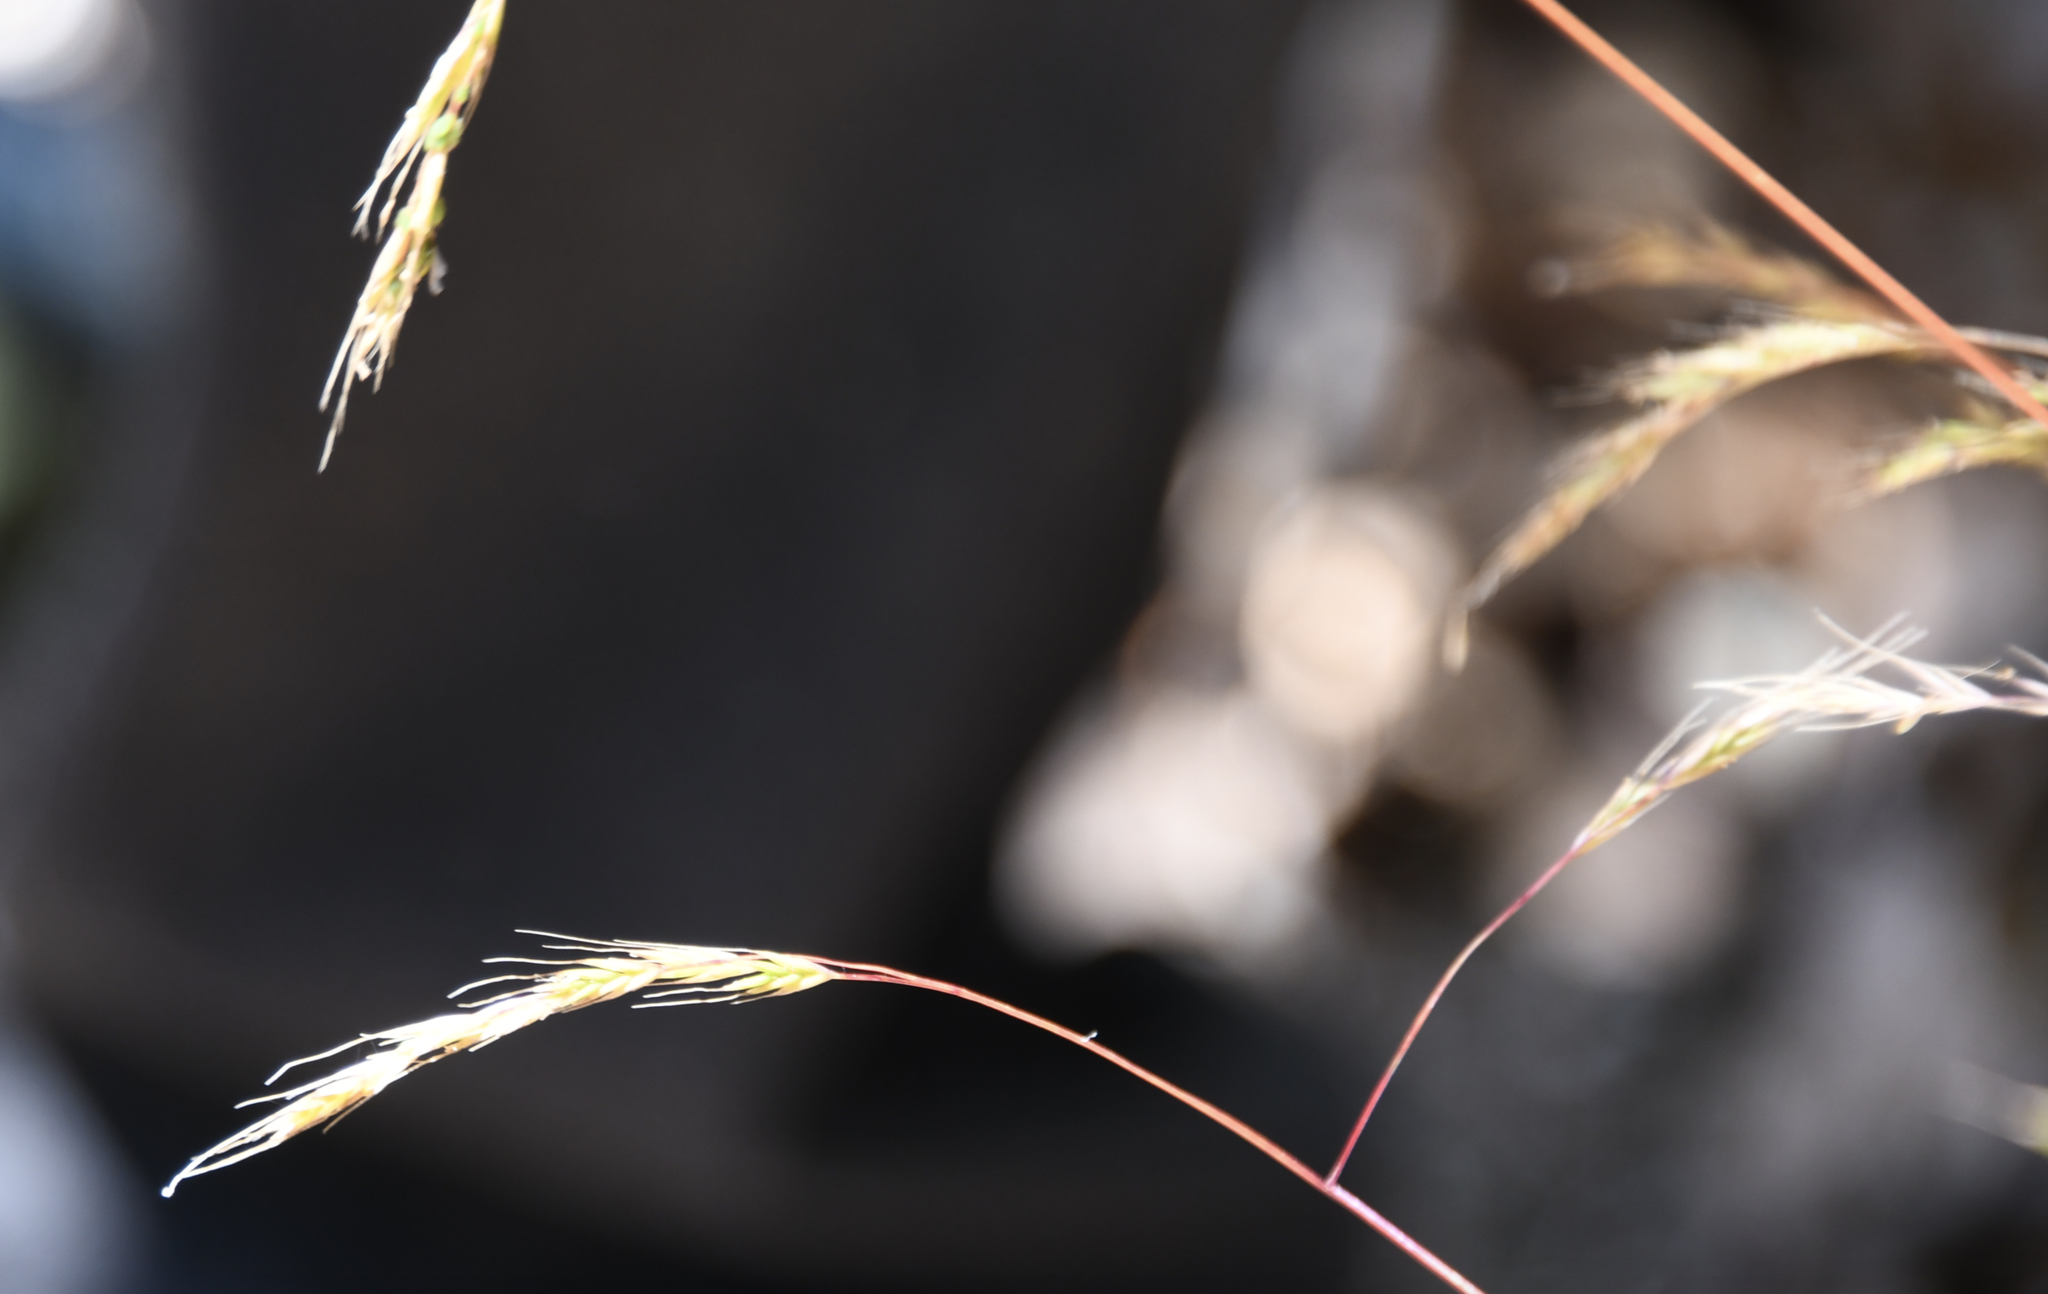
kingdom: Plantae
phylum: Tracheophyta
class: Liliopsida
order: Poales
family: Poaceae
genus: Festuca
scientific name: Festuca occidentalis
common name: Western fescue
